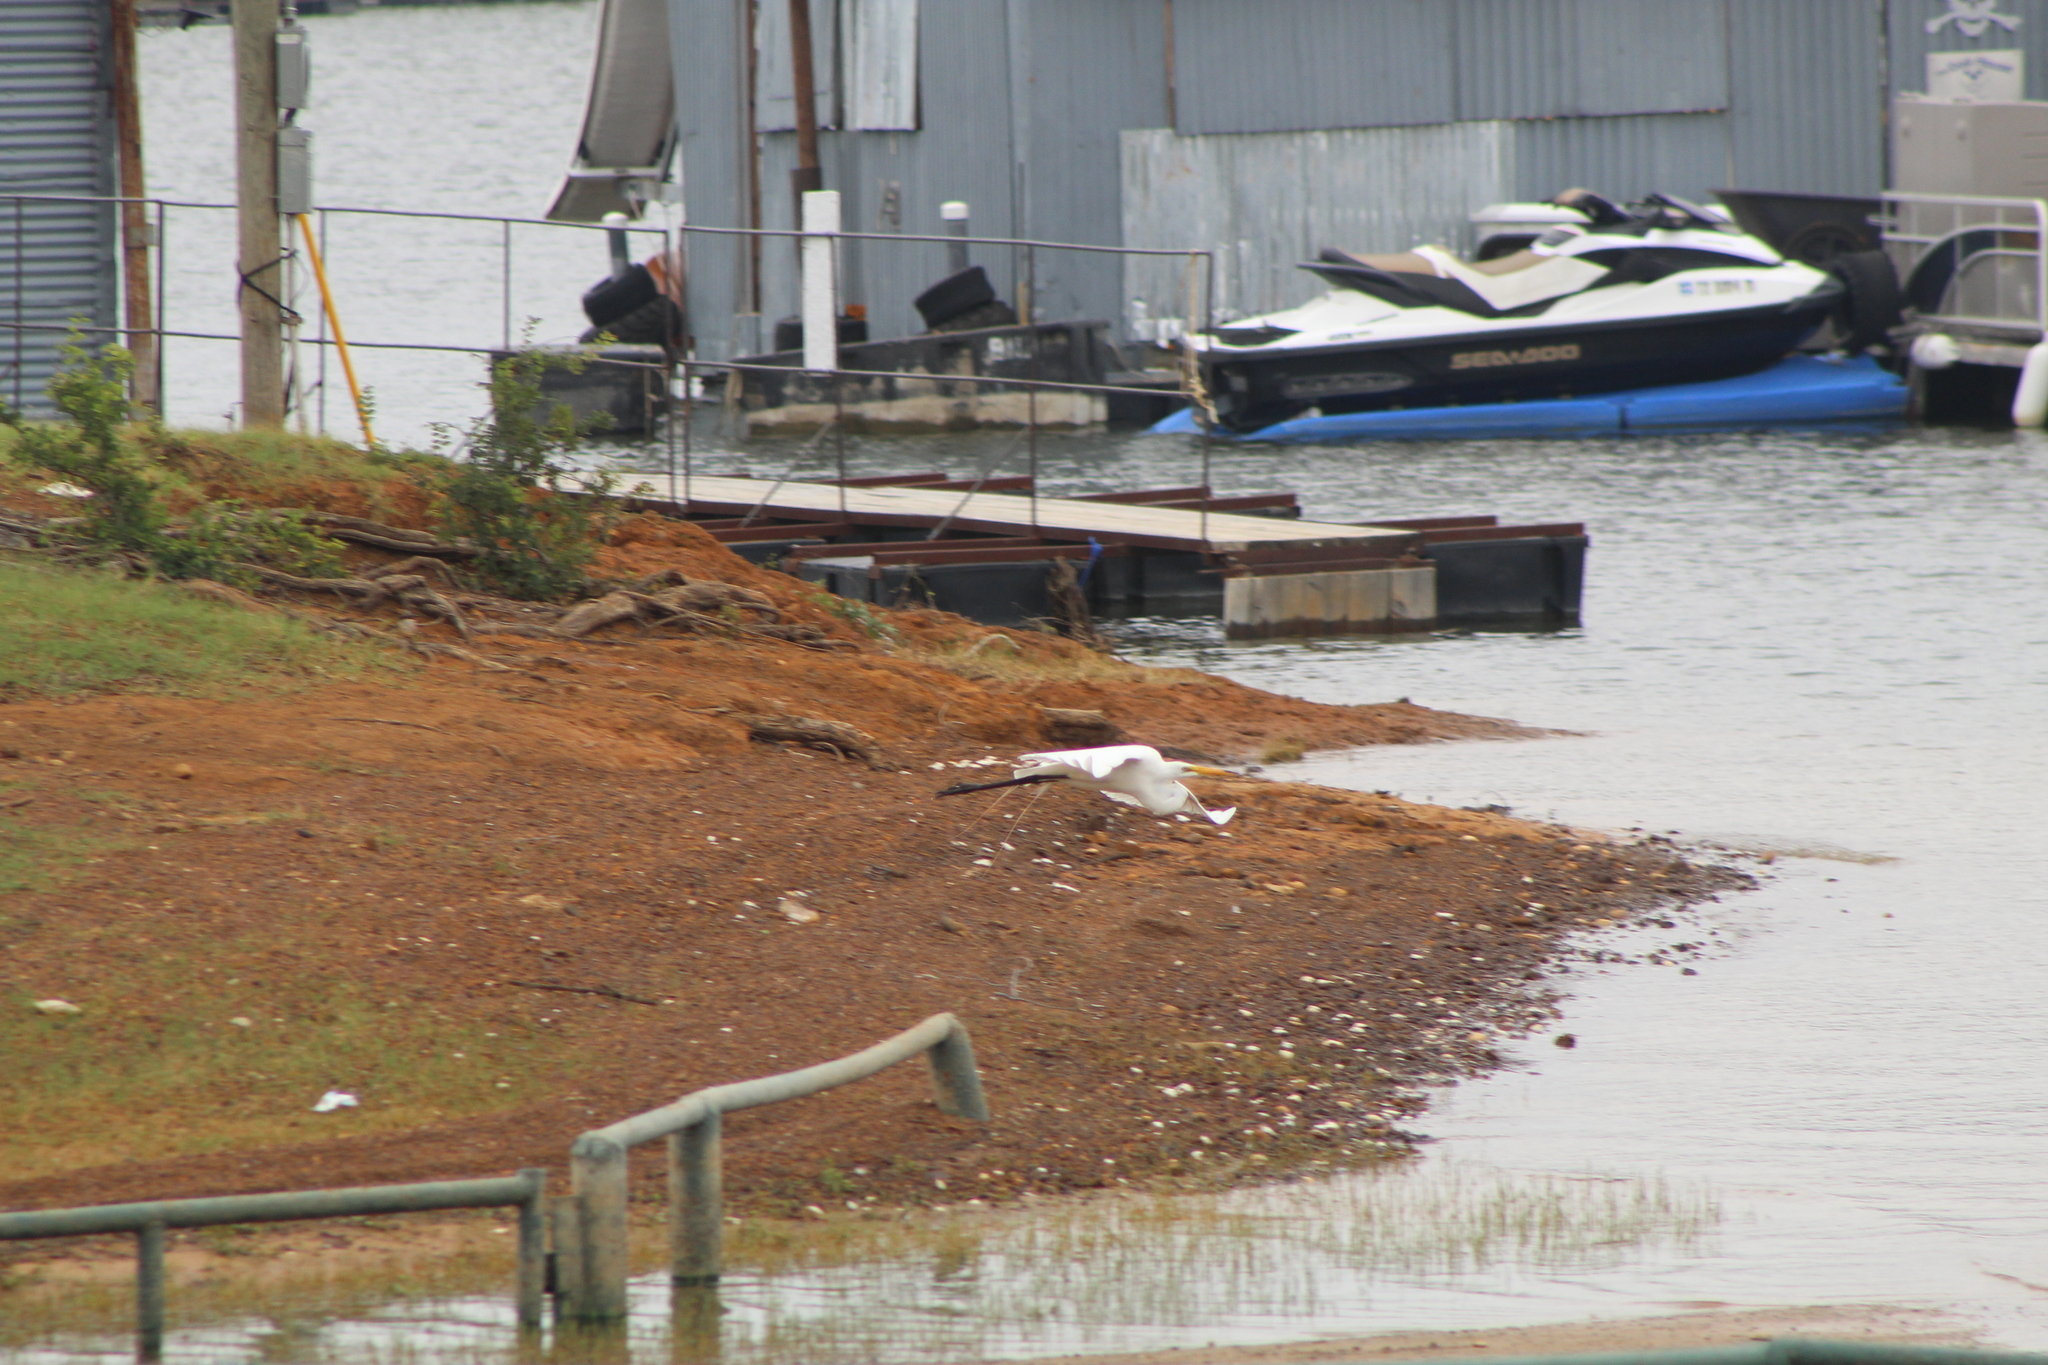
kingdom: Animalia
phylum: Chordata
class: Aves
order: Pelecaniformes
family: Ardeidae
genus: Ardea
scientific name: Ardea alba
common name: Great egret
